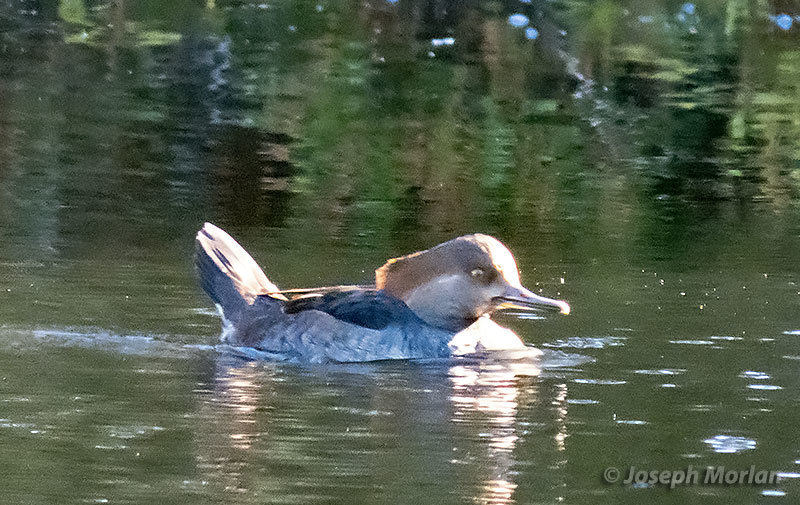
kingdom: Animalia
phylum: Chordata
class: Aves
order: Anseriformes
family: Anatidae
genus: Lophodytes
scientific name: Lophodytes cucullatus
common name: Hooded merganser
